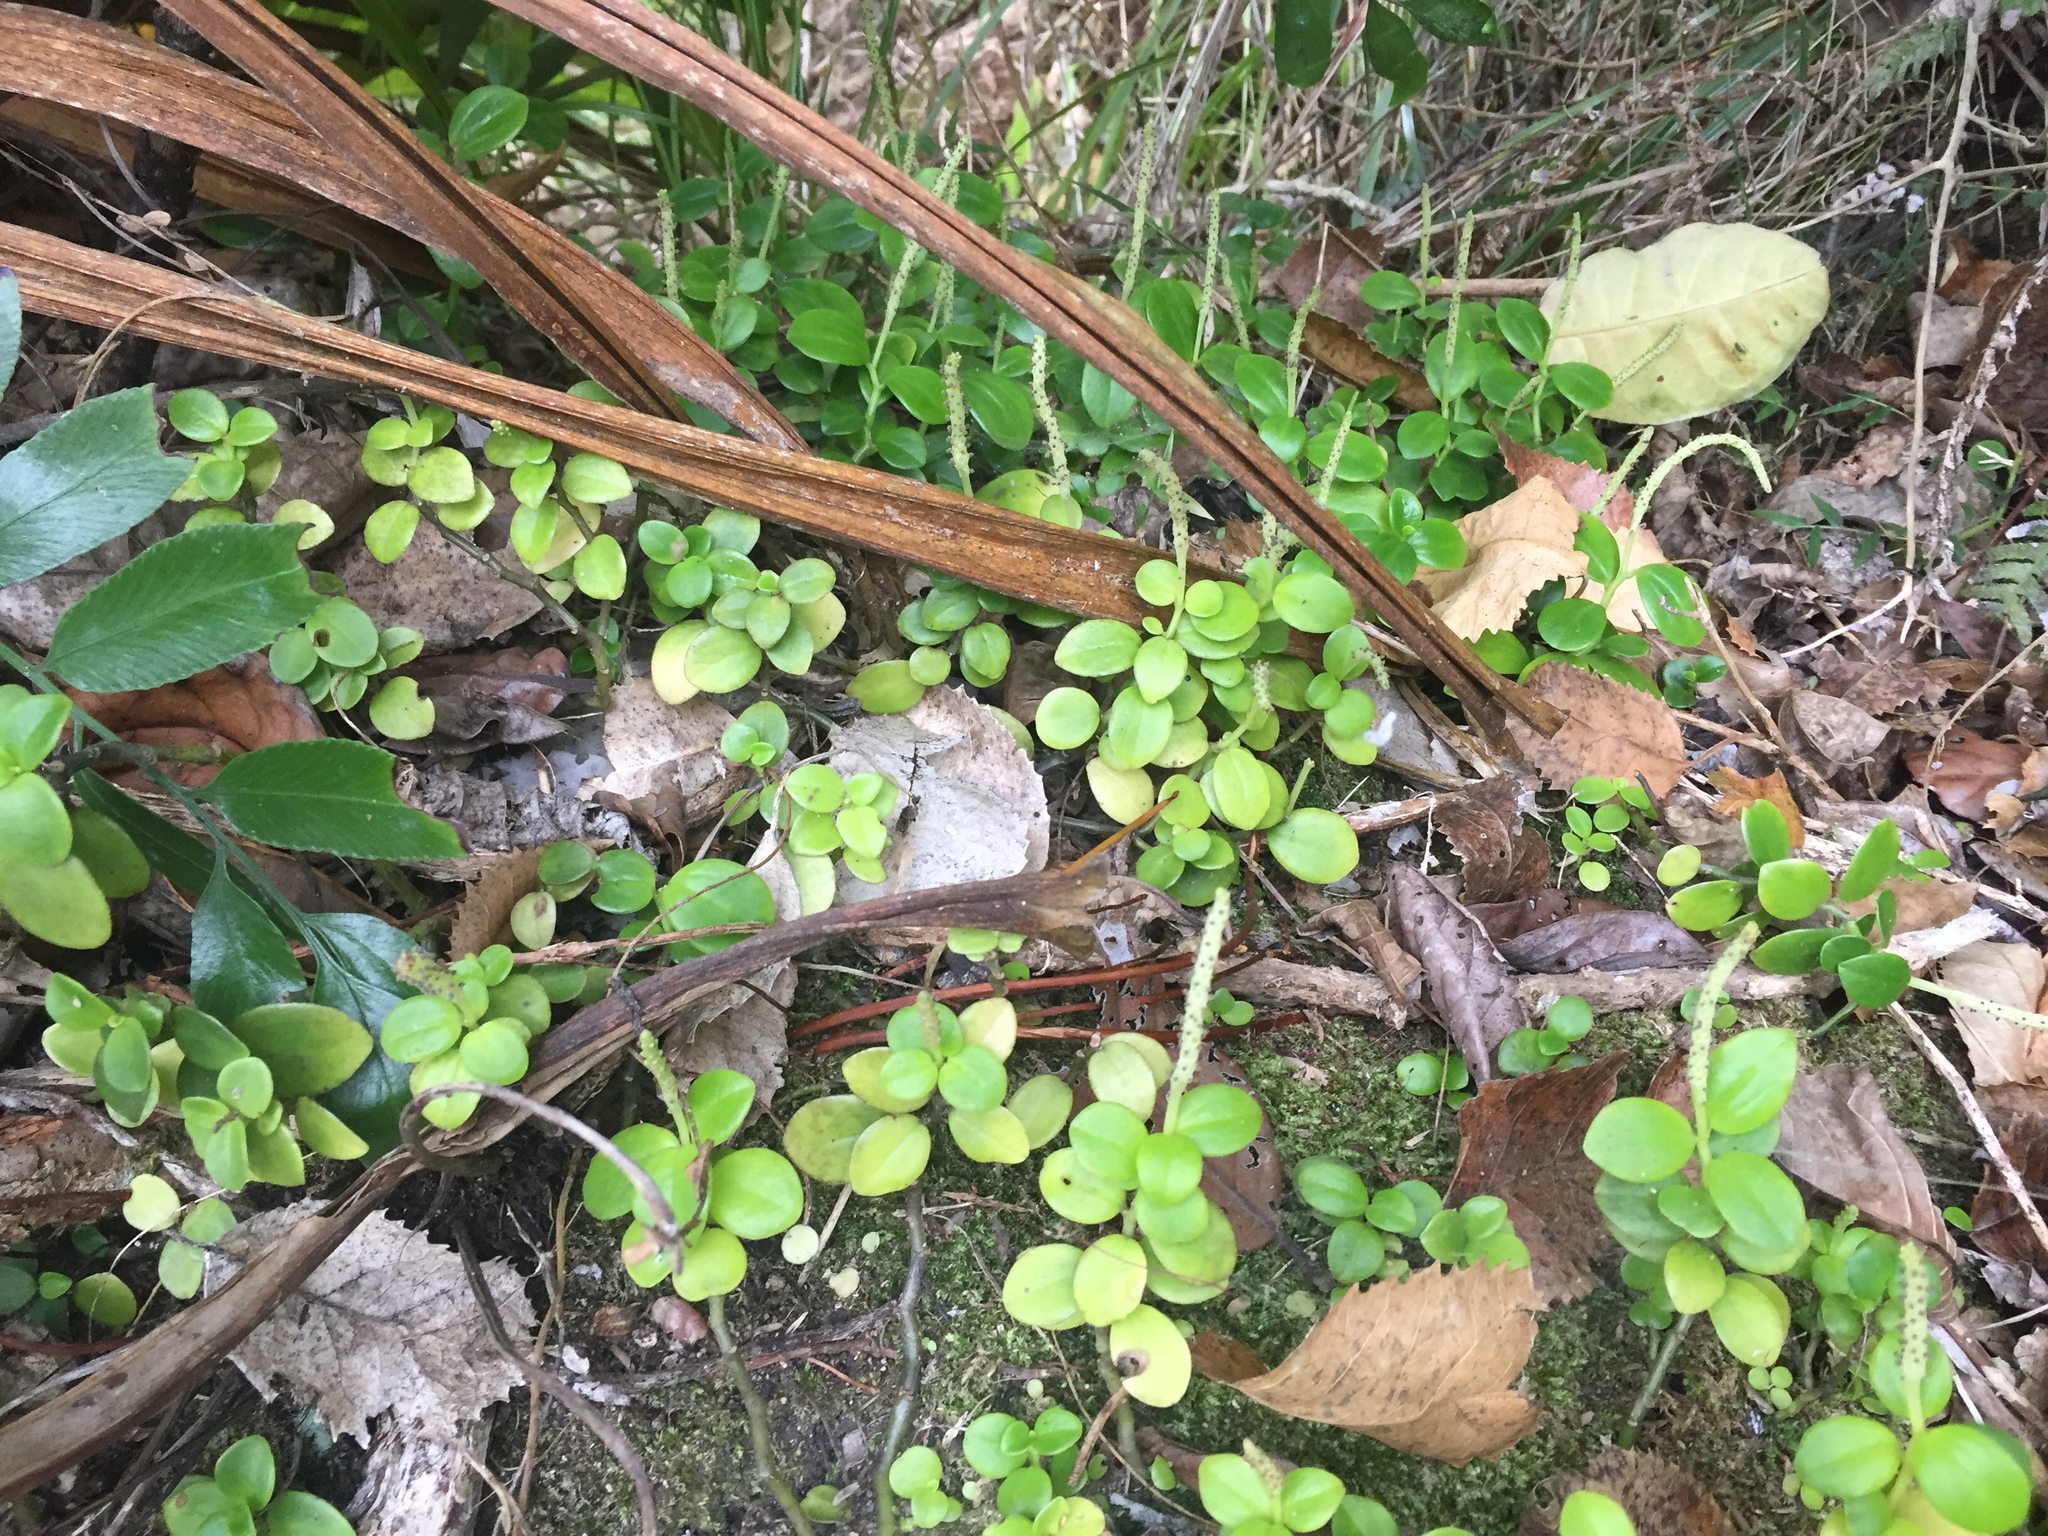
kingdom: Plantae
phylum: Tracheophyta
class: Magnoliopsida
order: Piperales
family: Piperaceae
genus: Peperomia
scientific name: Peperomia urvilleana
